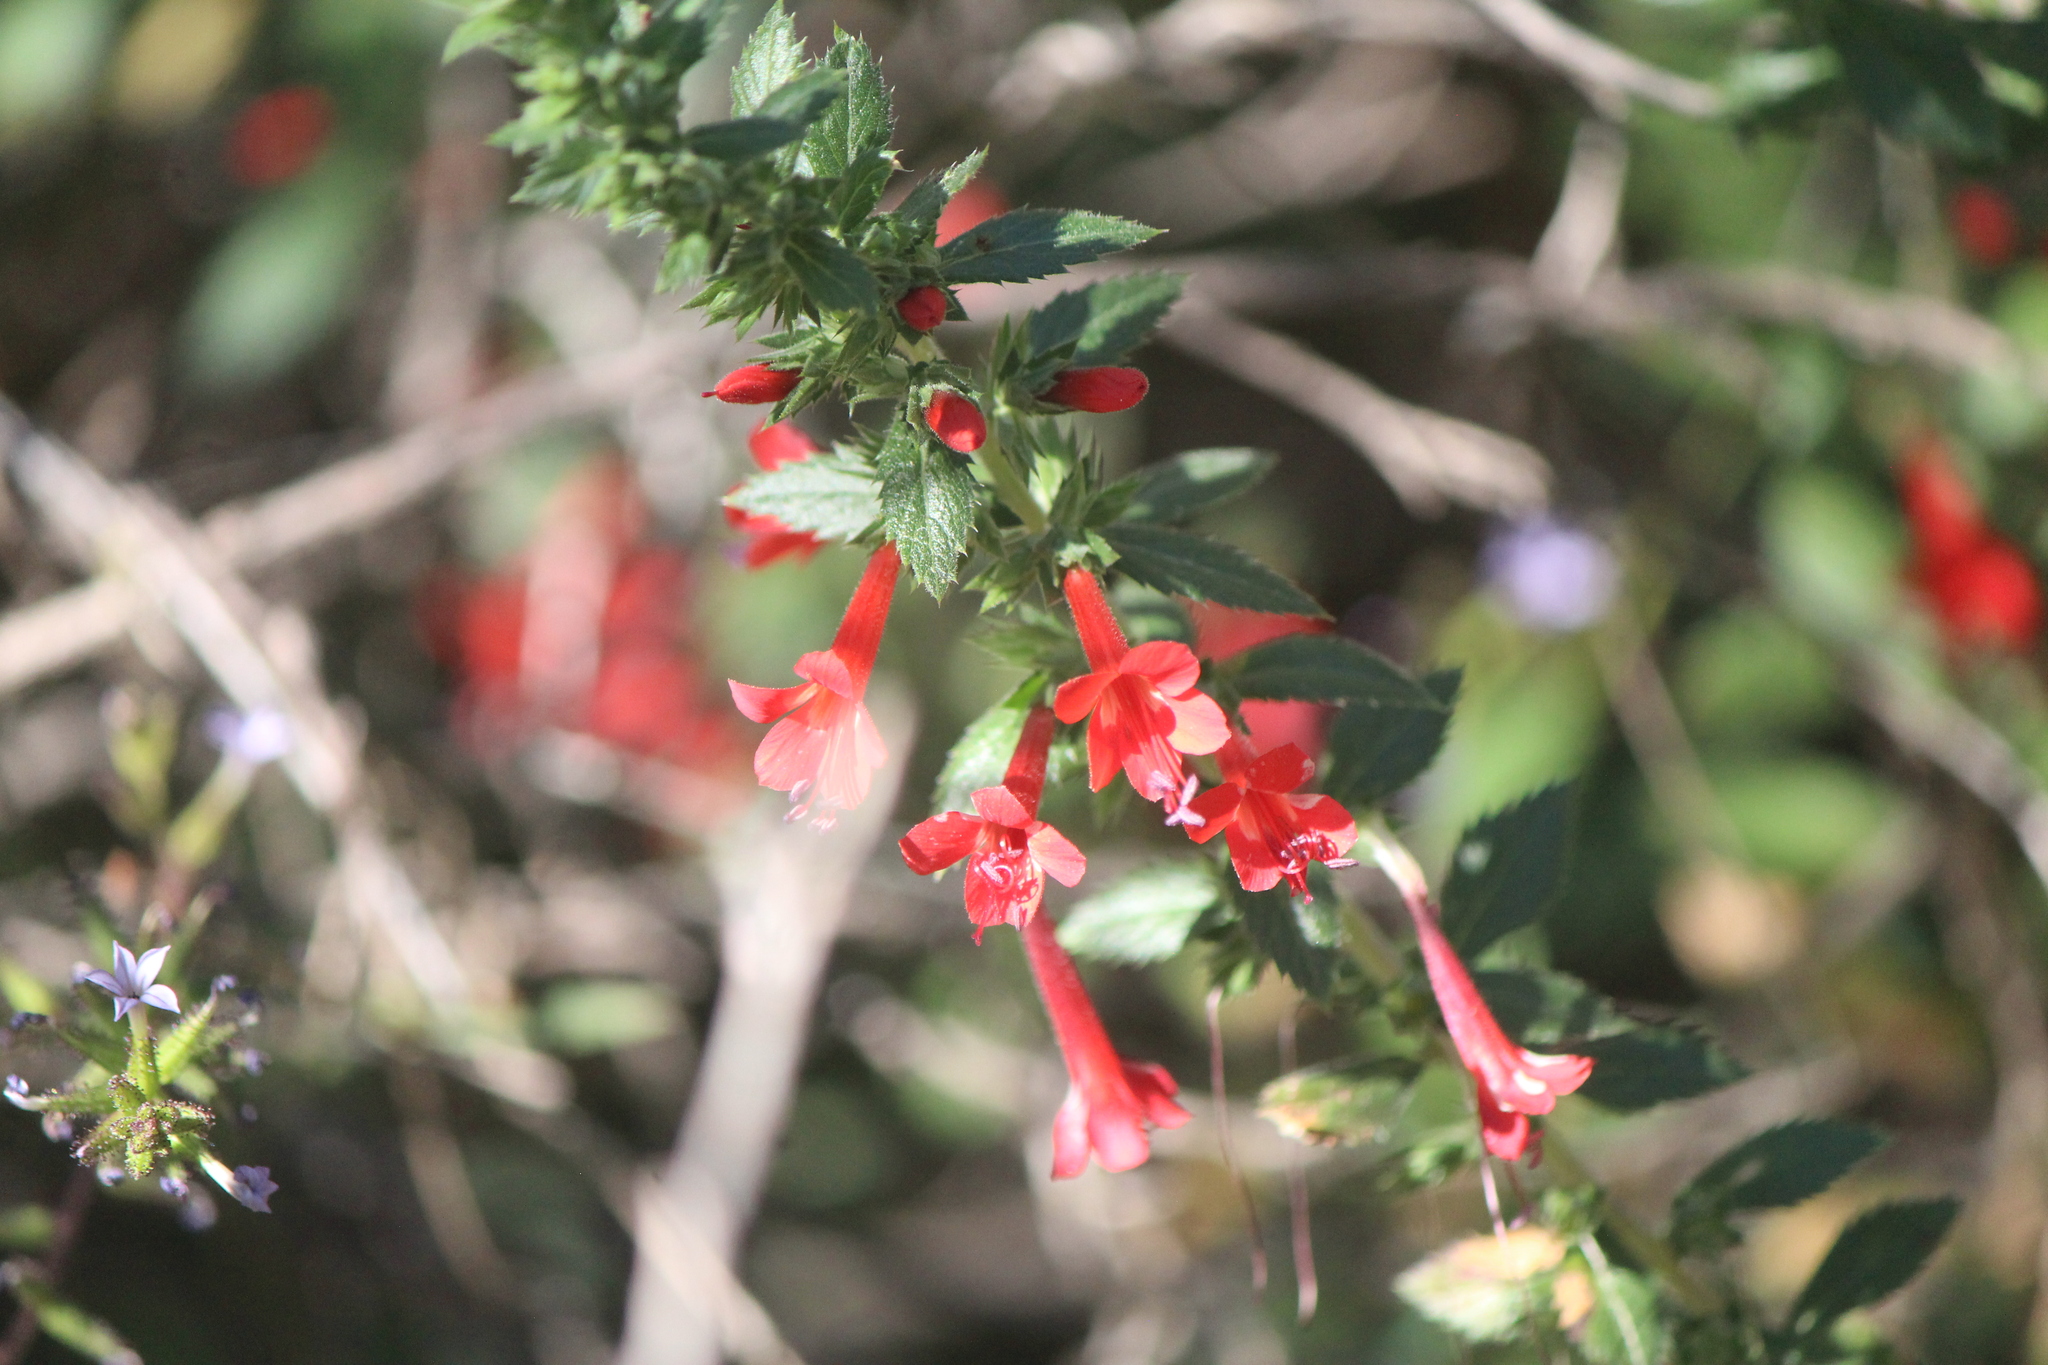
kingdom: Plantae
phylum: Tracheophyta
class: Magnoliopsida
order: Ericales
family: Polemoniaceae
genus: Loeselia
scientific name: Loeselia mexicana
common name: Mexican false calico
